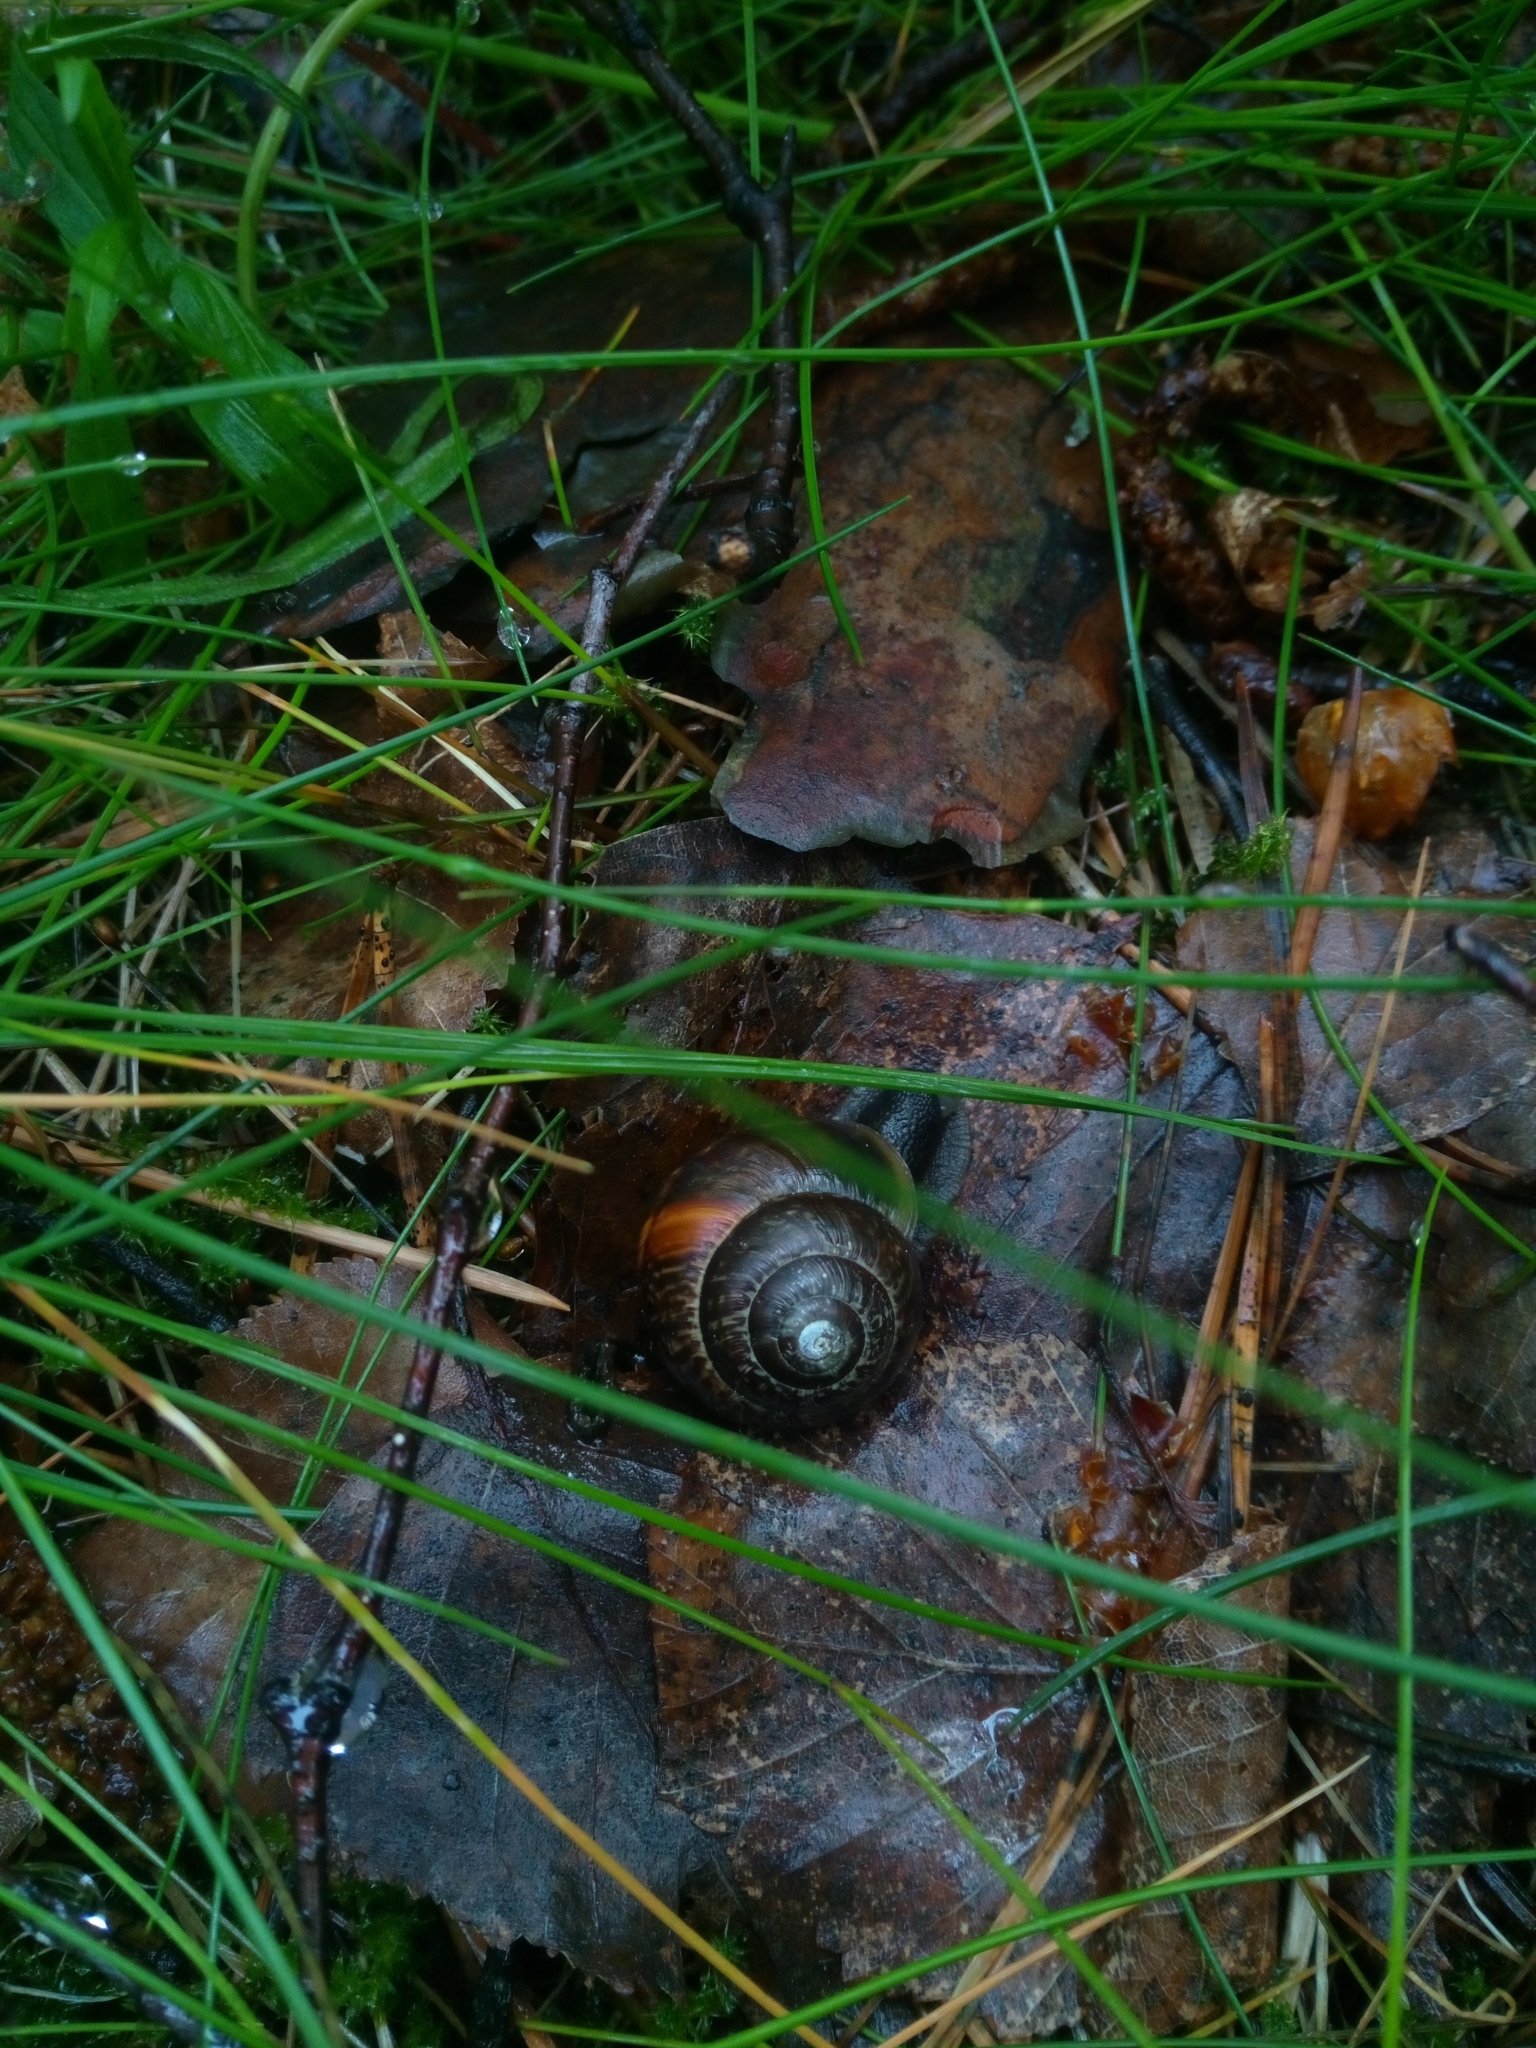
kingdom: Animalia
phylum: Mollusca
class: Gastropoda
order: Stylommatophora
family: Helicidae
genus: Arianta
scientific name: Arianta arbustorum
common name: Copse snail
